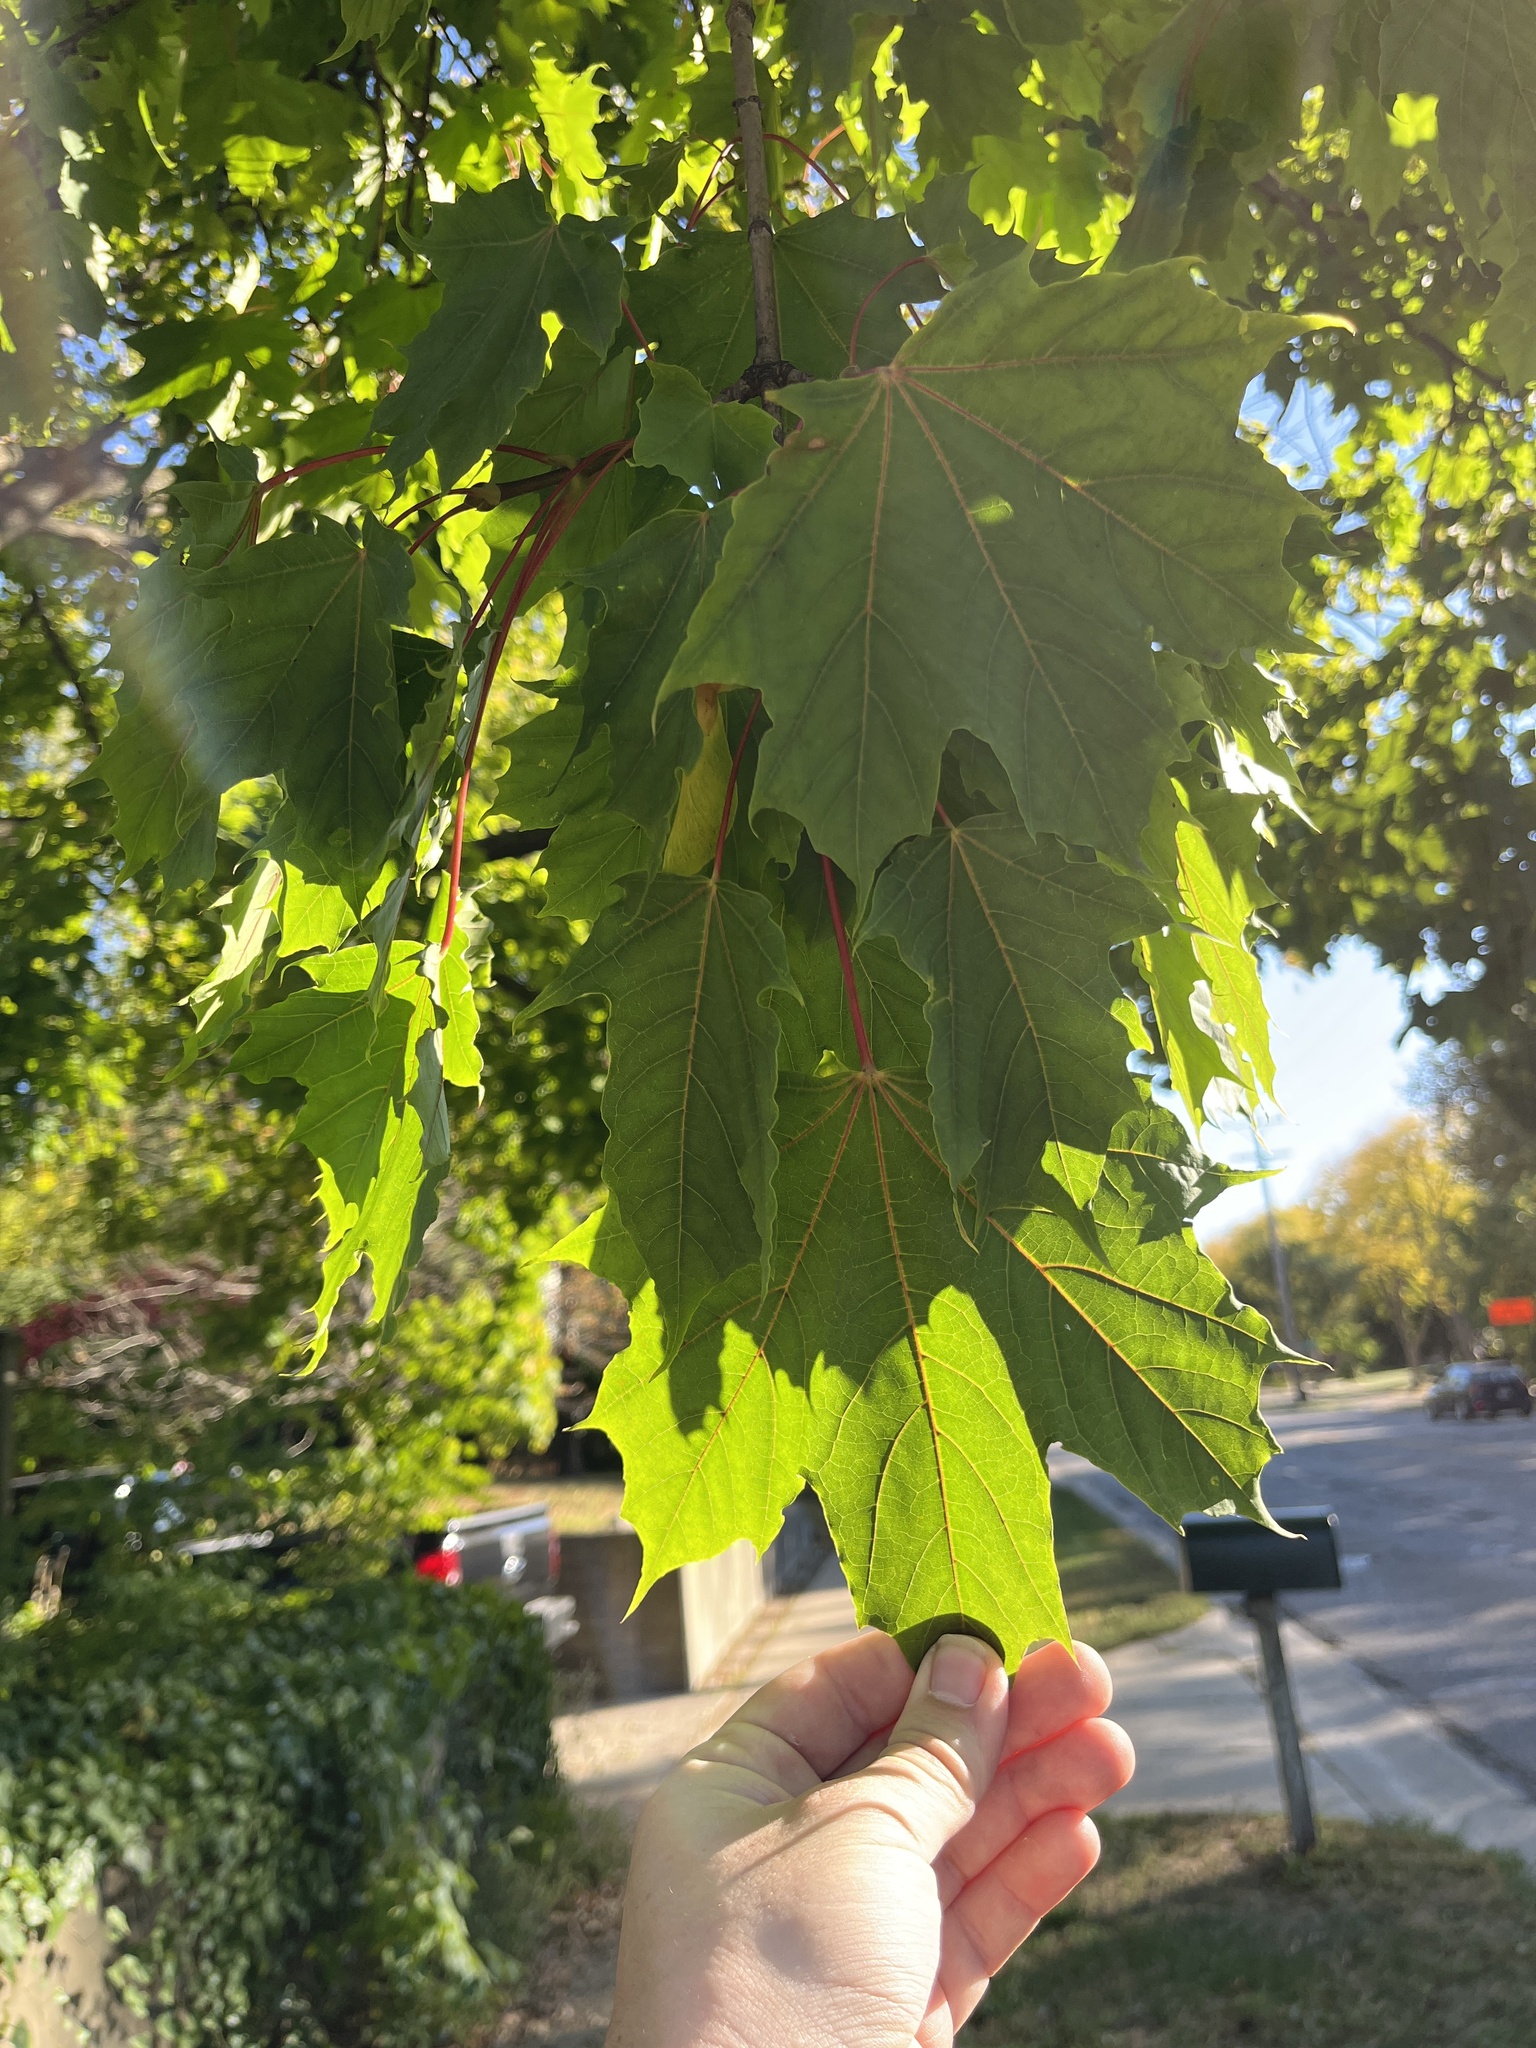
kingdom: Plantae
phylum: Tracheophyta
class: Magnoliopsida
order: Sapindales
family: Sapindaceae
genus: Acer
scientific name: Acer platanoides
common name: Norway maple
